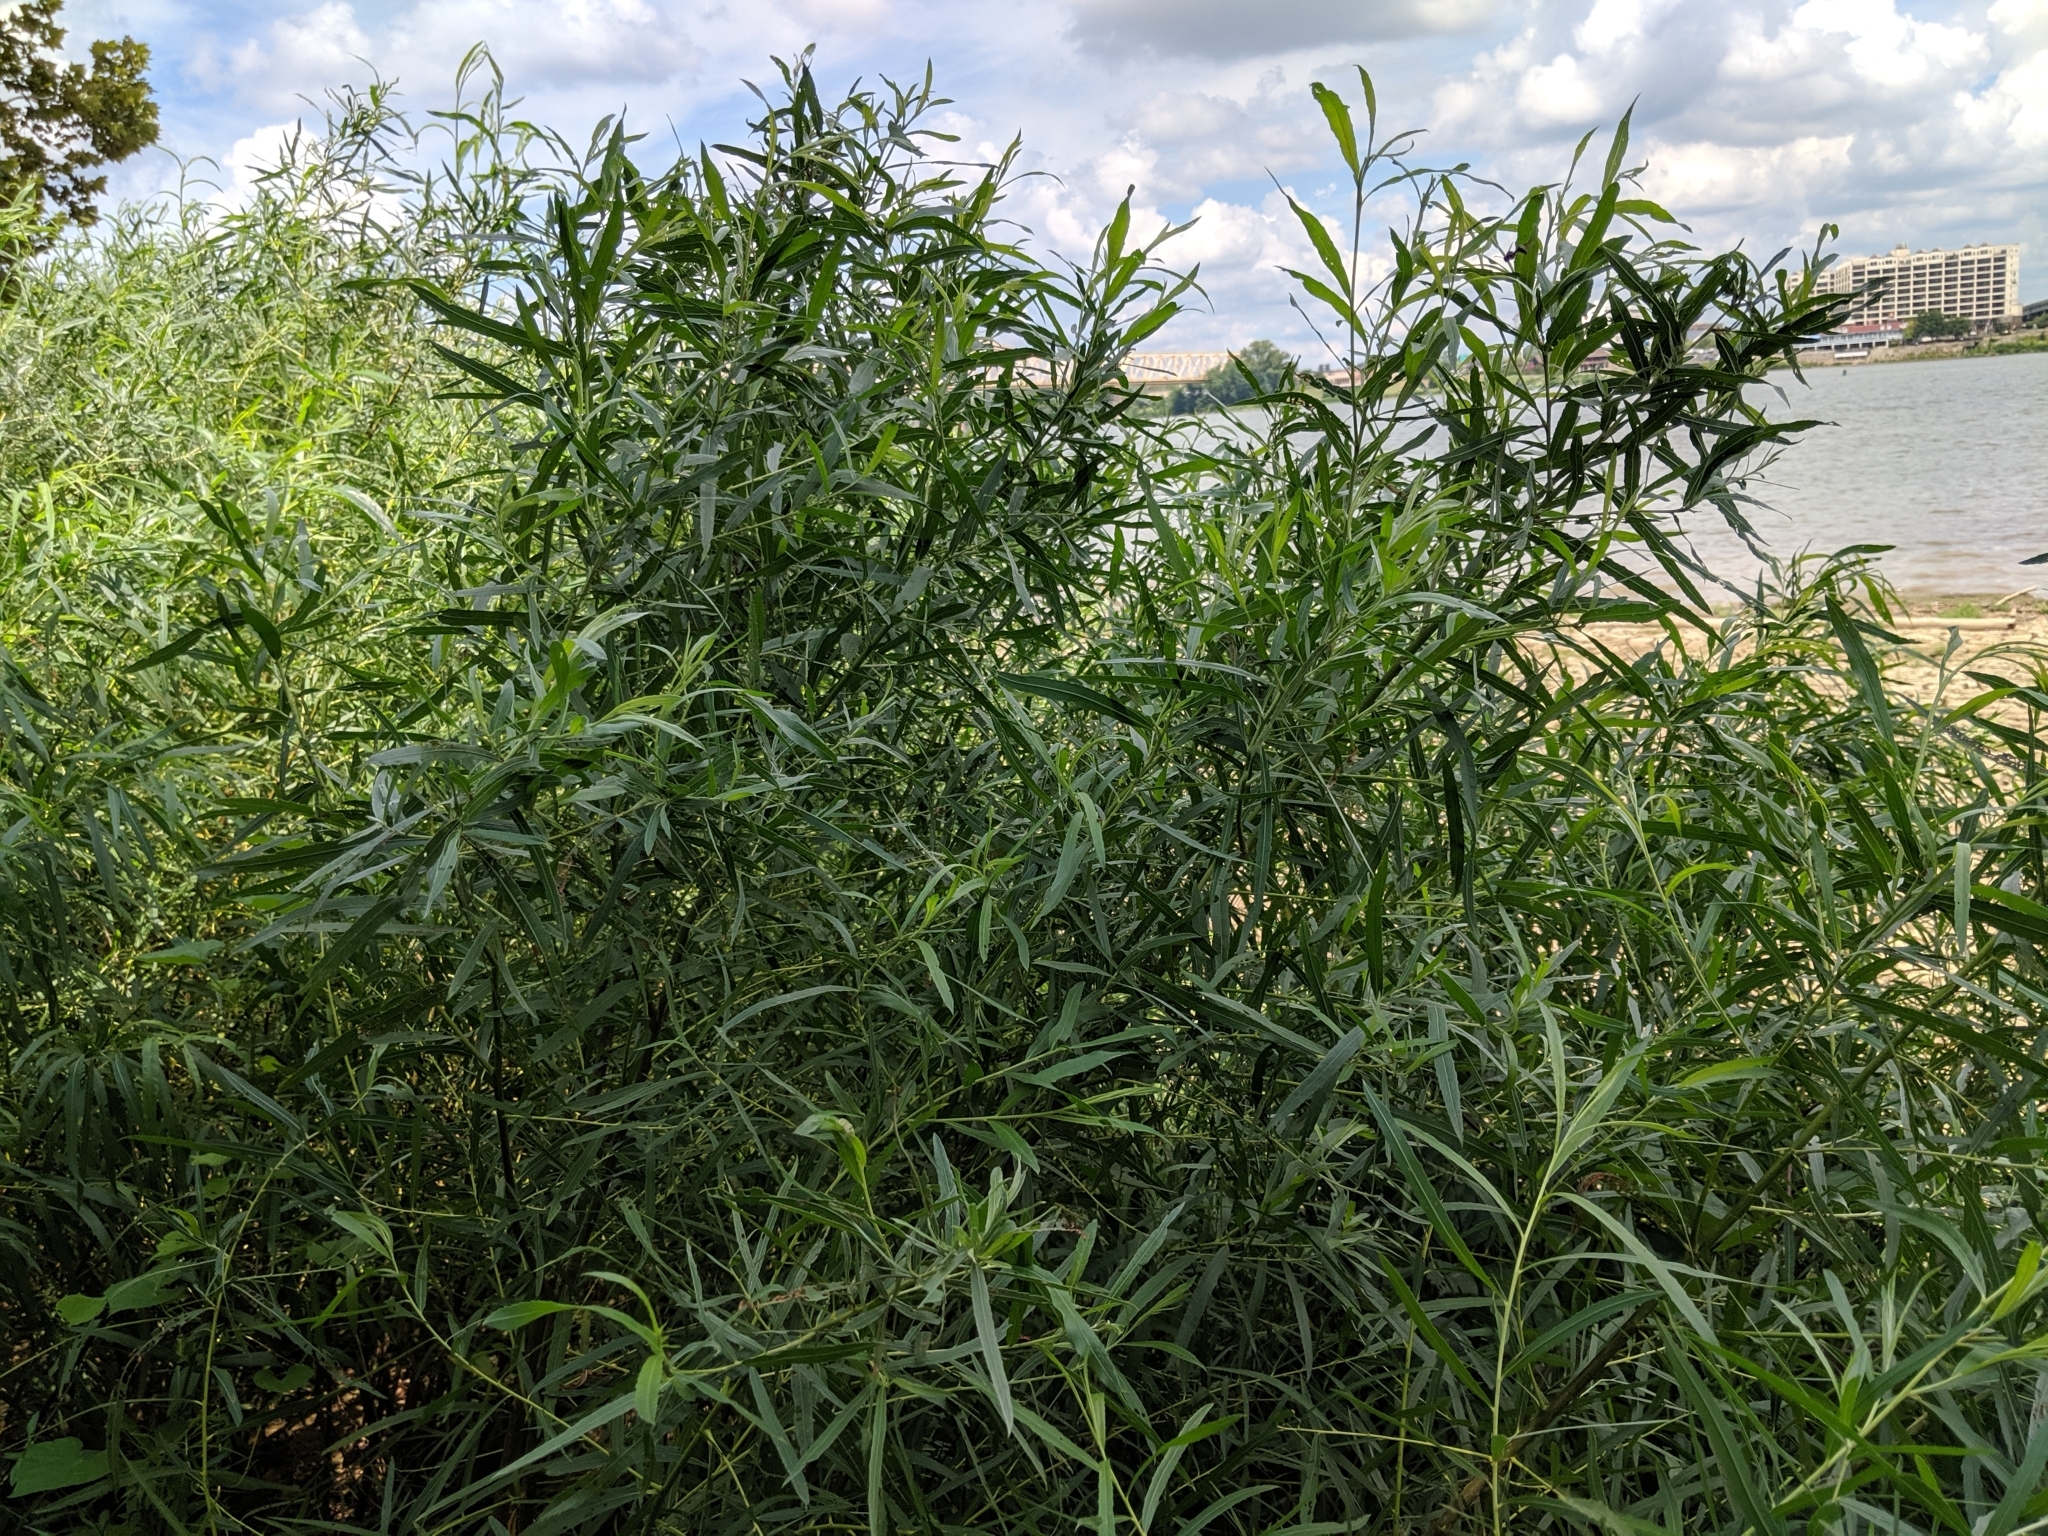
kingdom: Plantae
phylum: Tracheophyta
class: Magnoliopsida
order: Malpighiales
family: Salicaceae
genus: Salix
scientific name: Salix exigua
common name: Coyote willow
